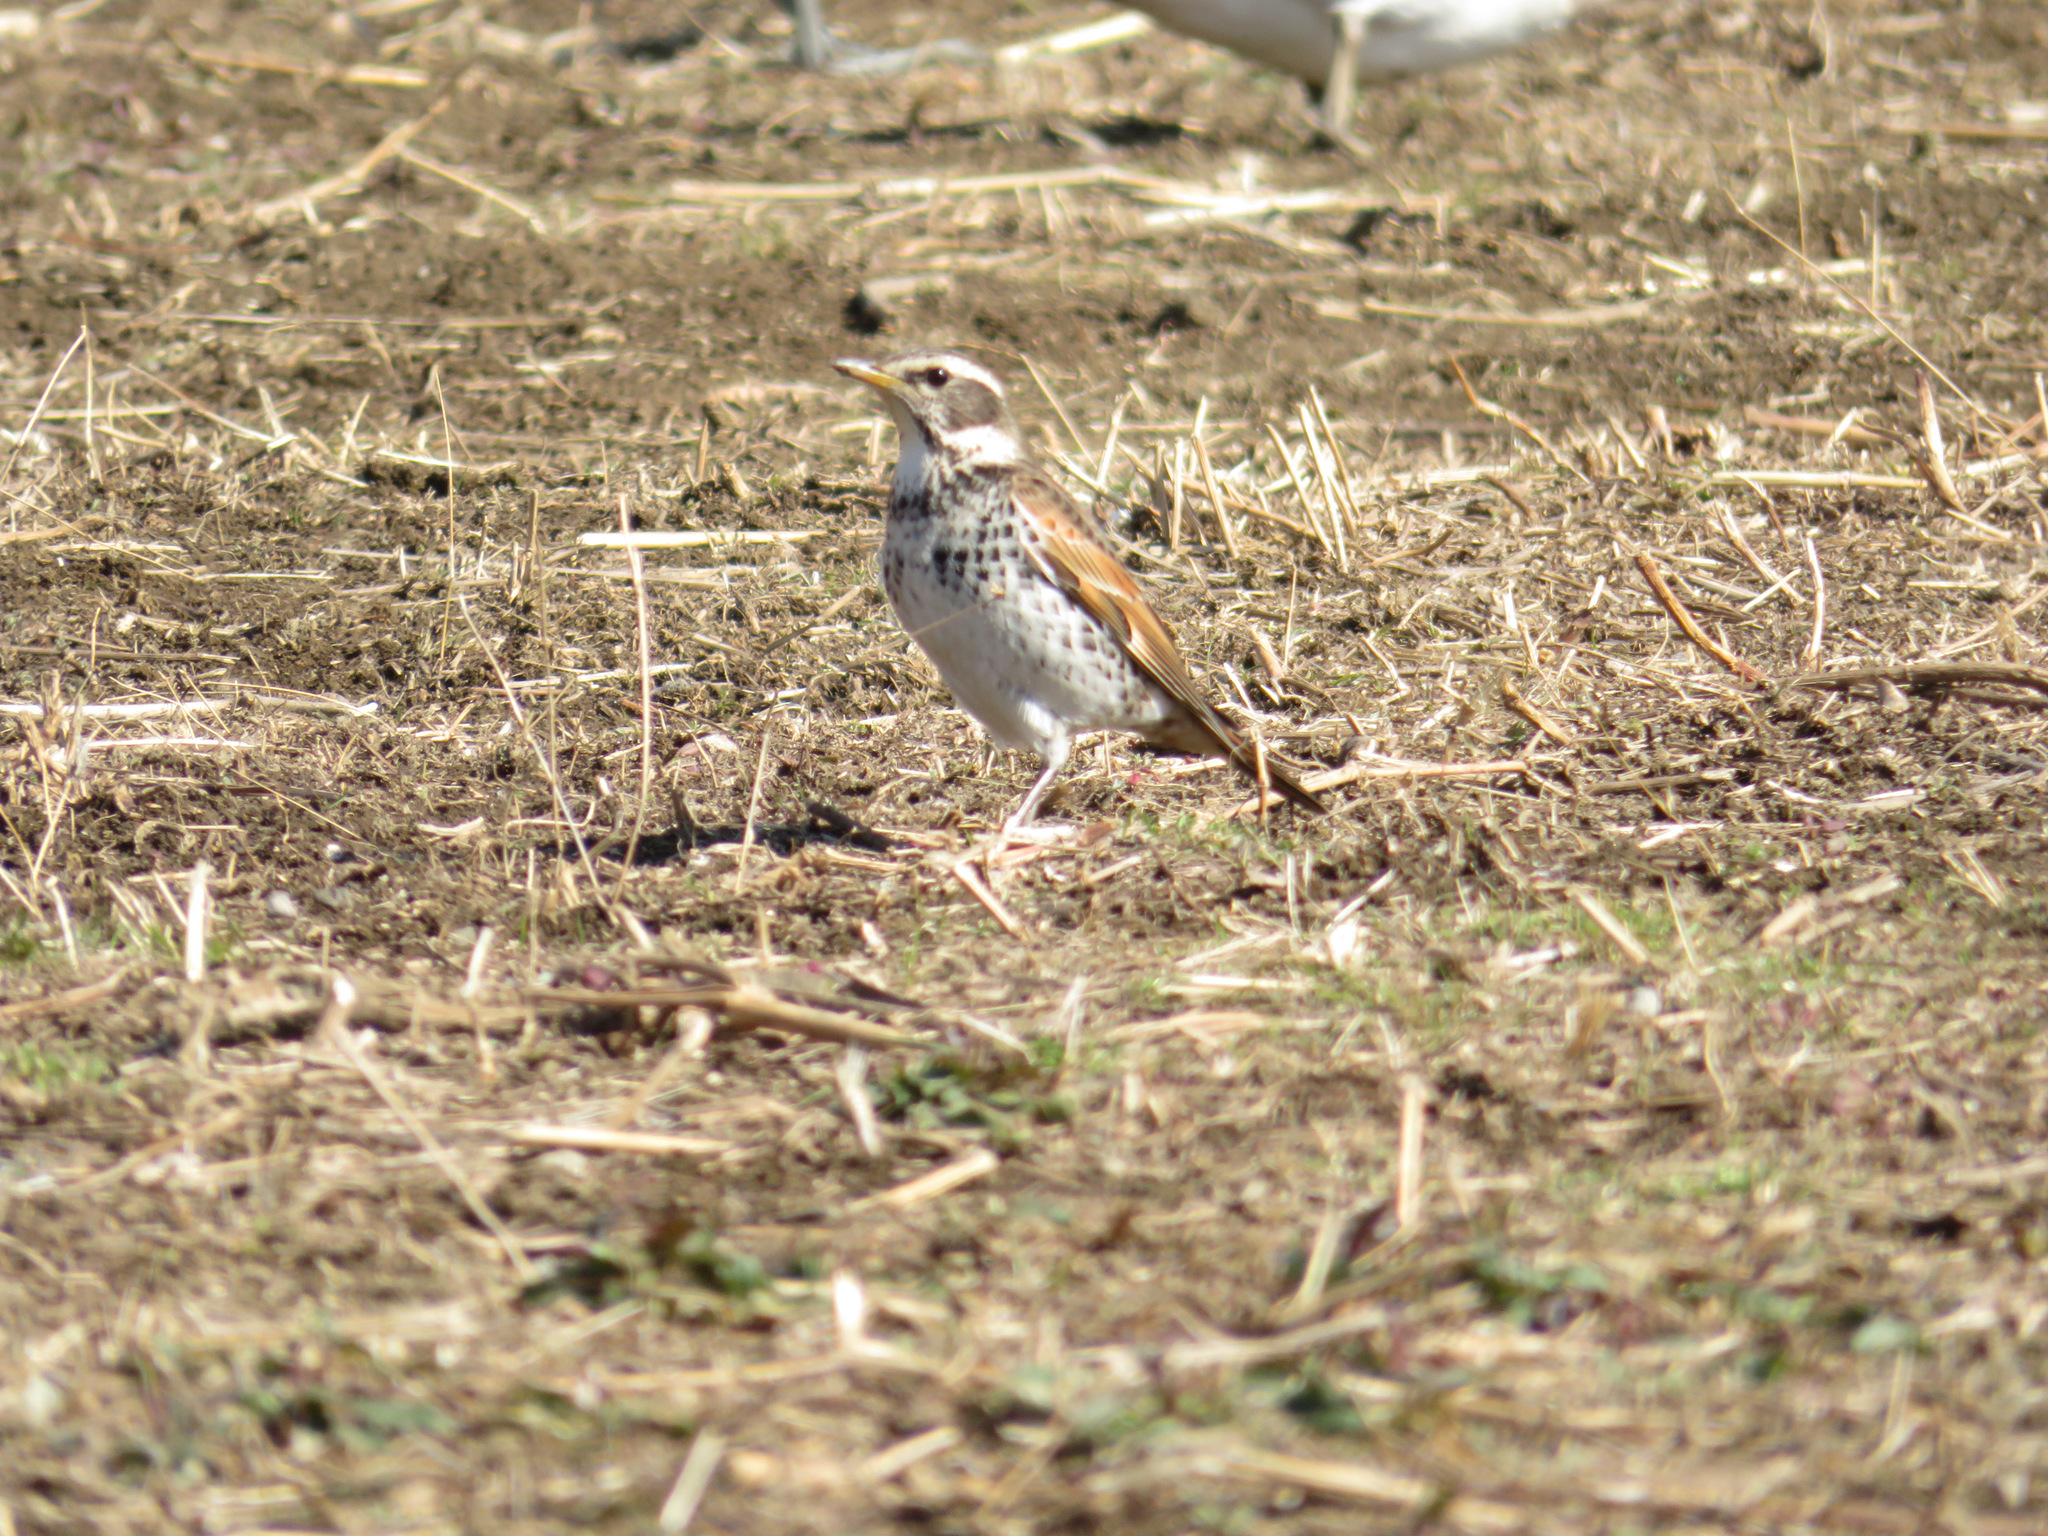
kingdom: Animalia
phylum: Chordata
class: Aves
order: Passeriformes
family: Turdidae
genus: Turdus
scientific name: Turdus eunomus
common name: Dusky thrush
